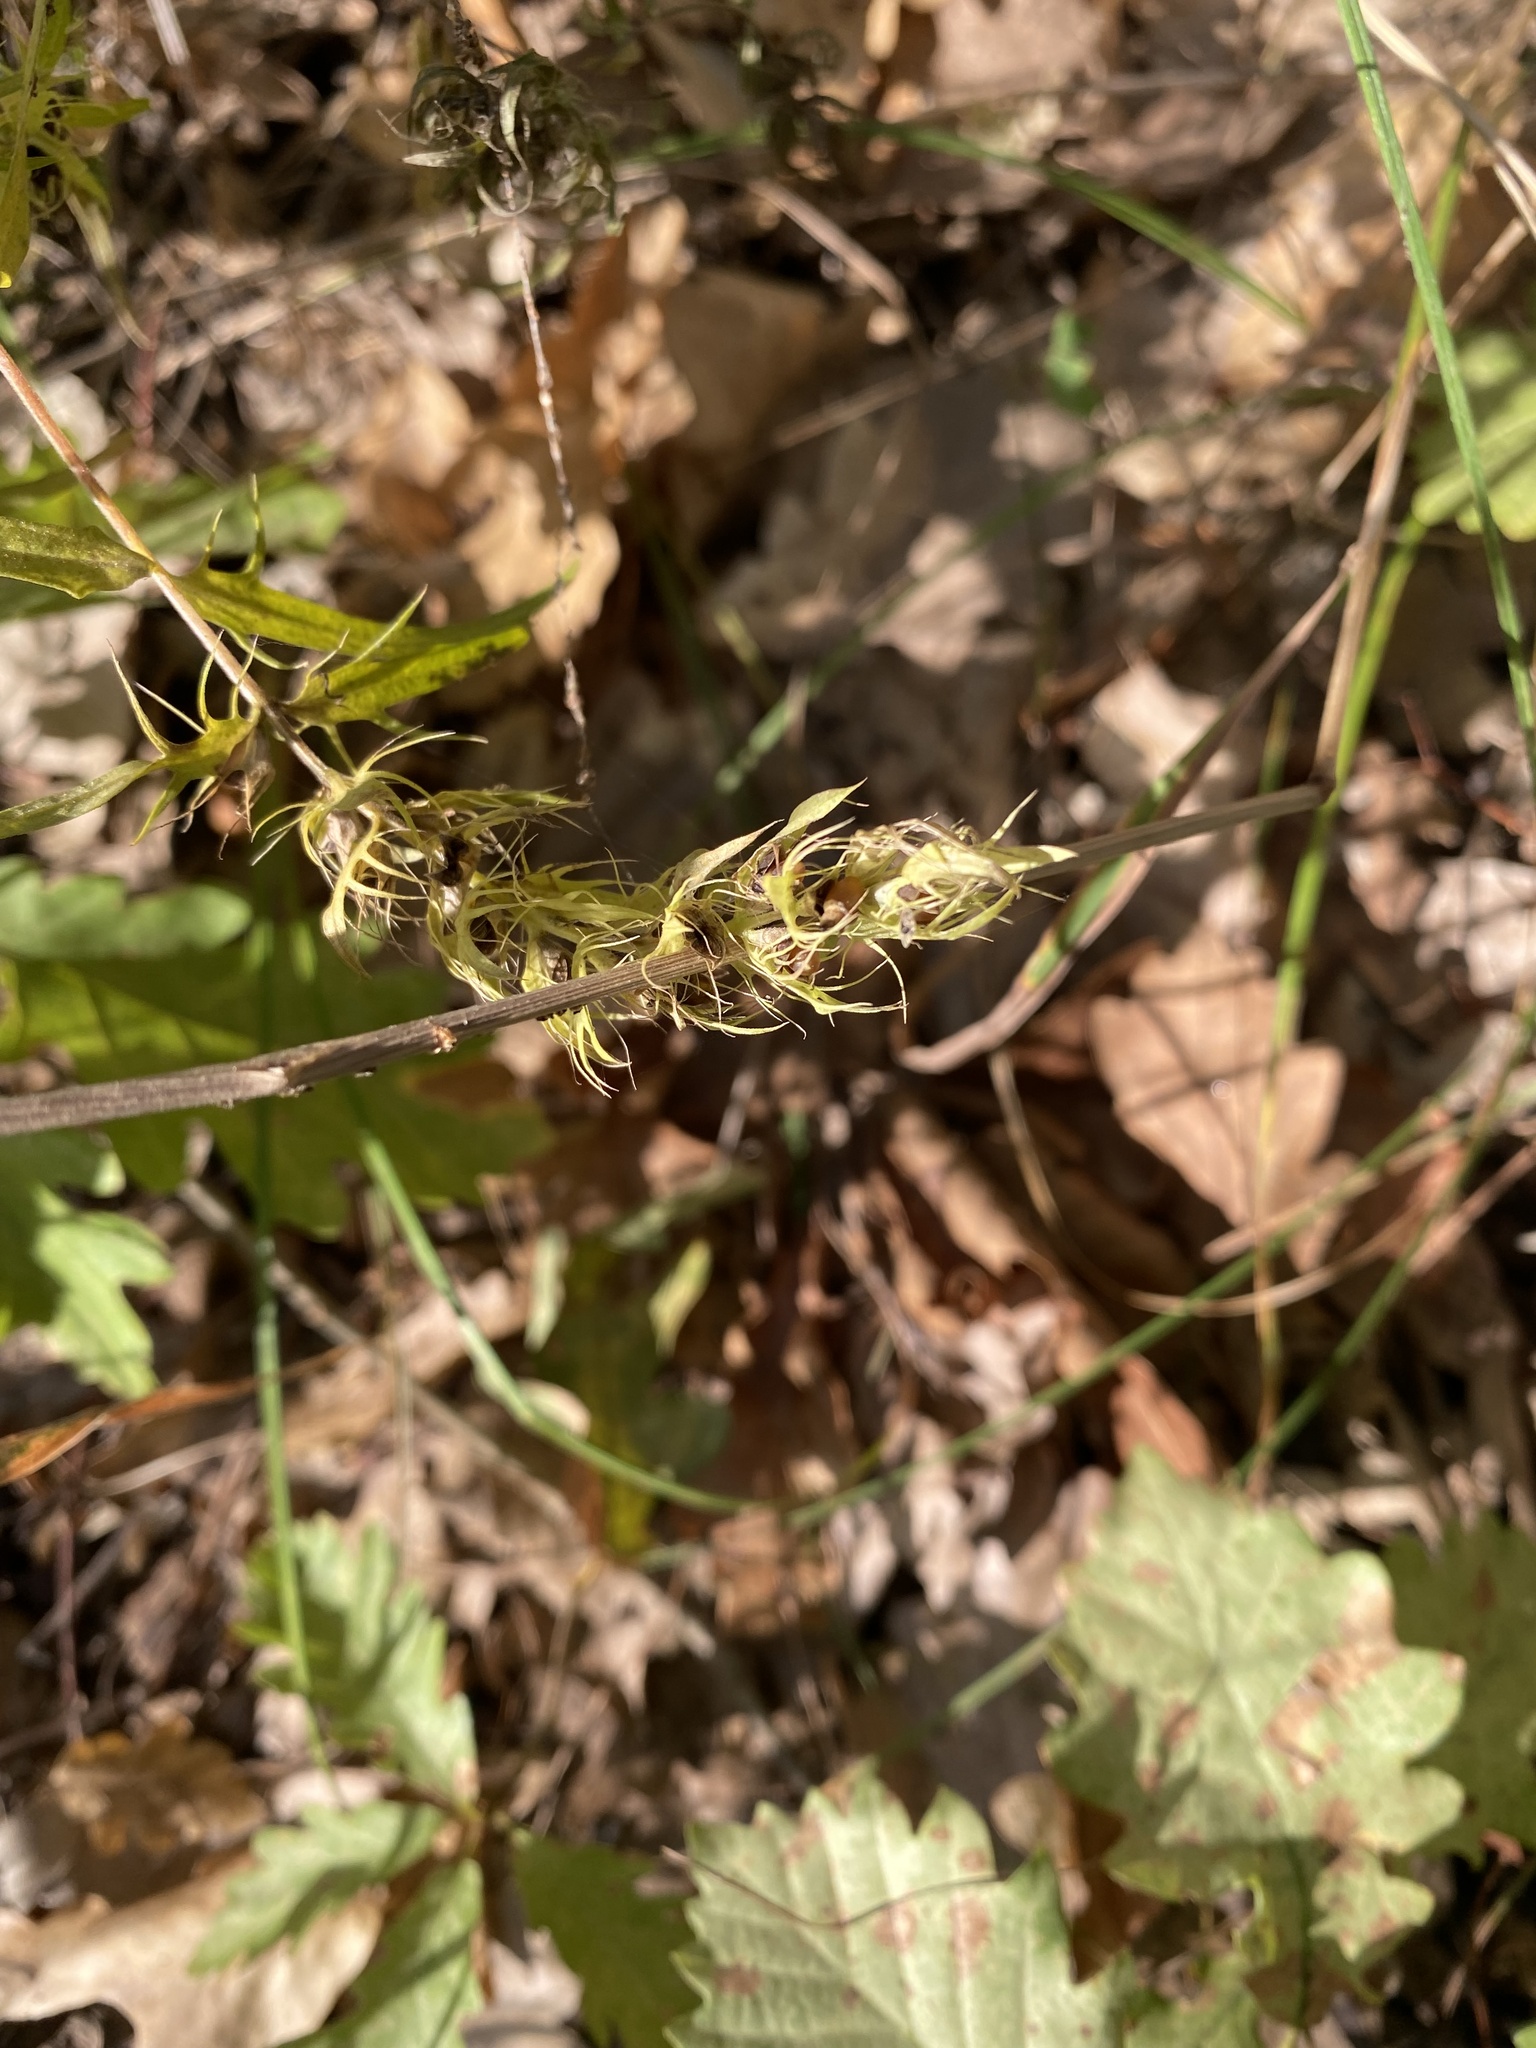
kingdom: Plantae
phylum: Tracheophyta
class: Magnoliopsida
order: Lamiales
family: Orobanchaceae
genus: Melampyrum
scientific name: Melampyrum arvense
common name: Field cow-wheat
